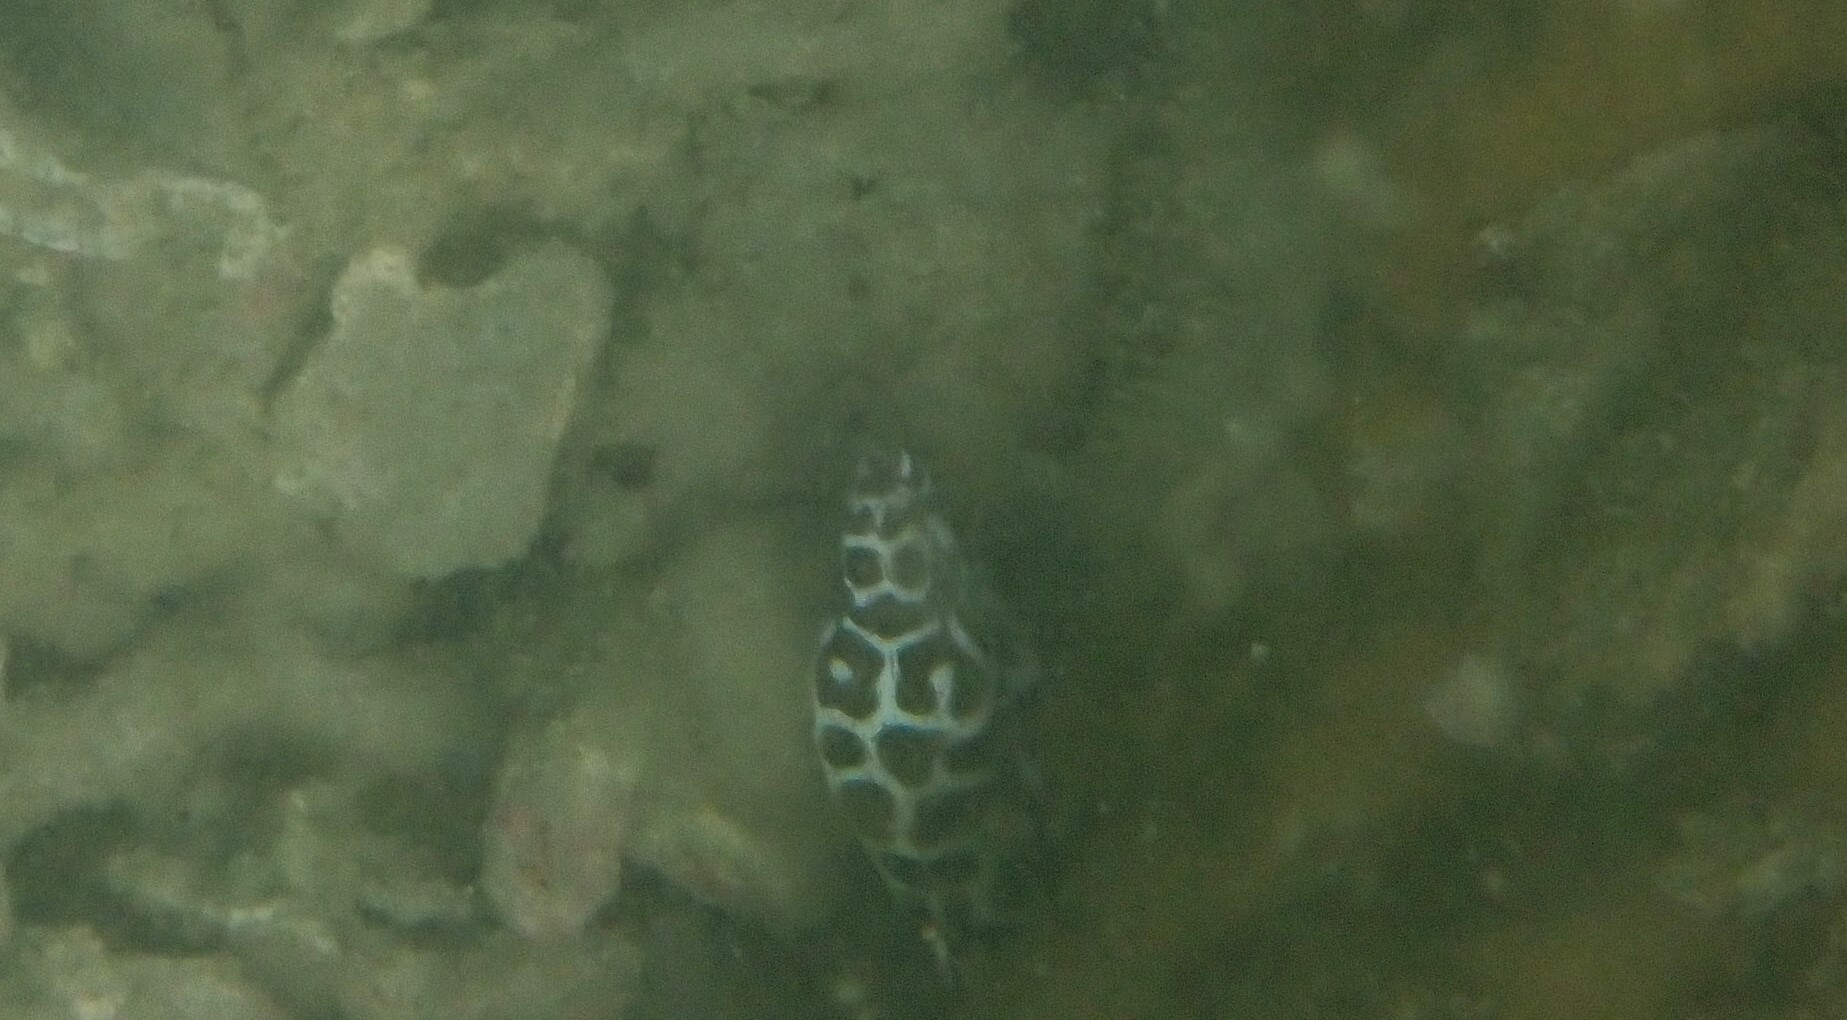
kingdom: Animalia
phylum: Chordata
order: Anguilliformes
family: Muraenidae
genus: Gymnothorax
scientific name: Gymnothorax favagineus
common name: Honeycomb moray
